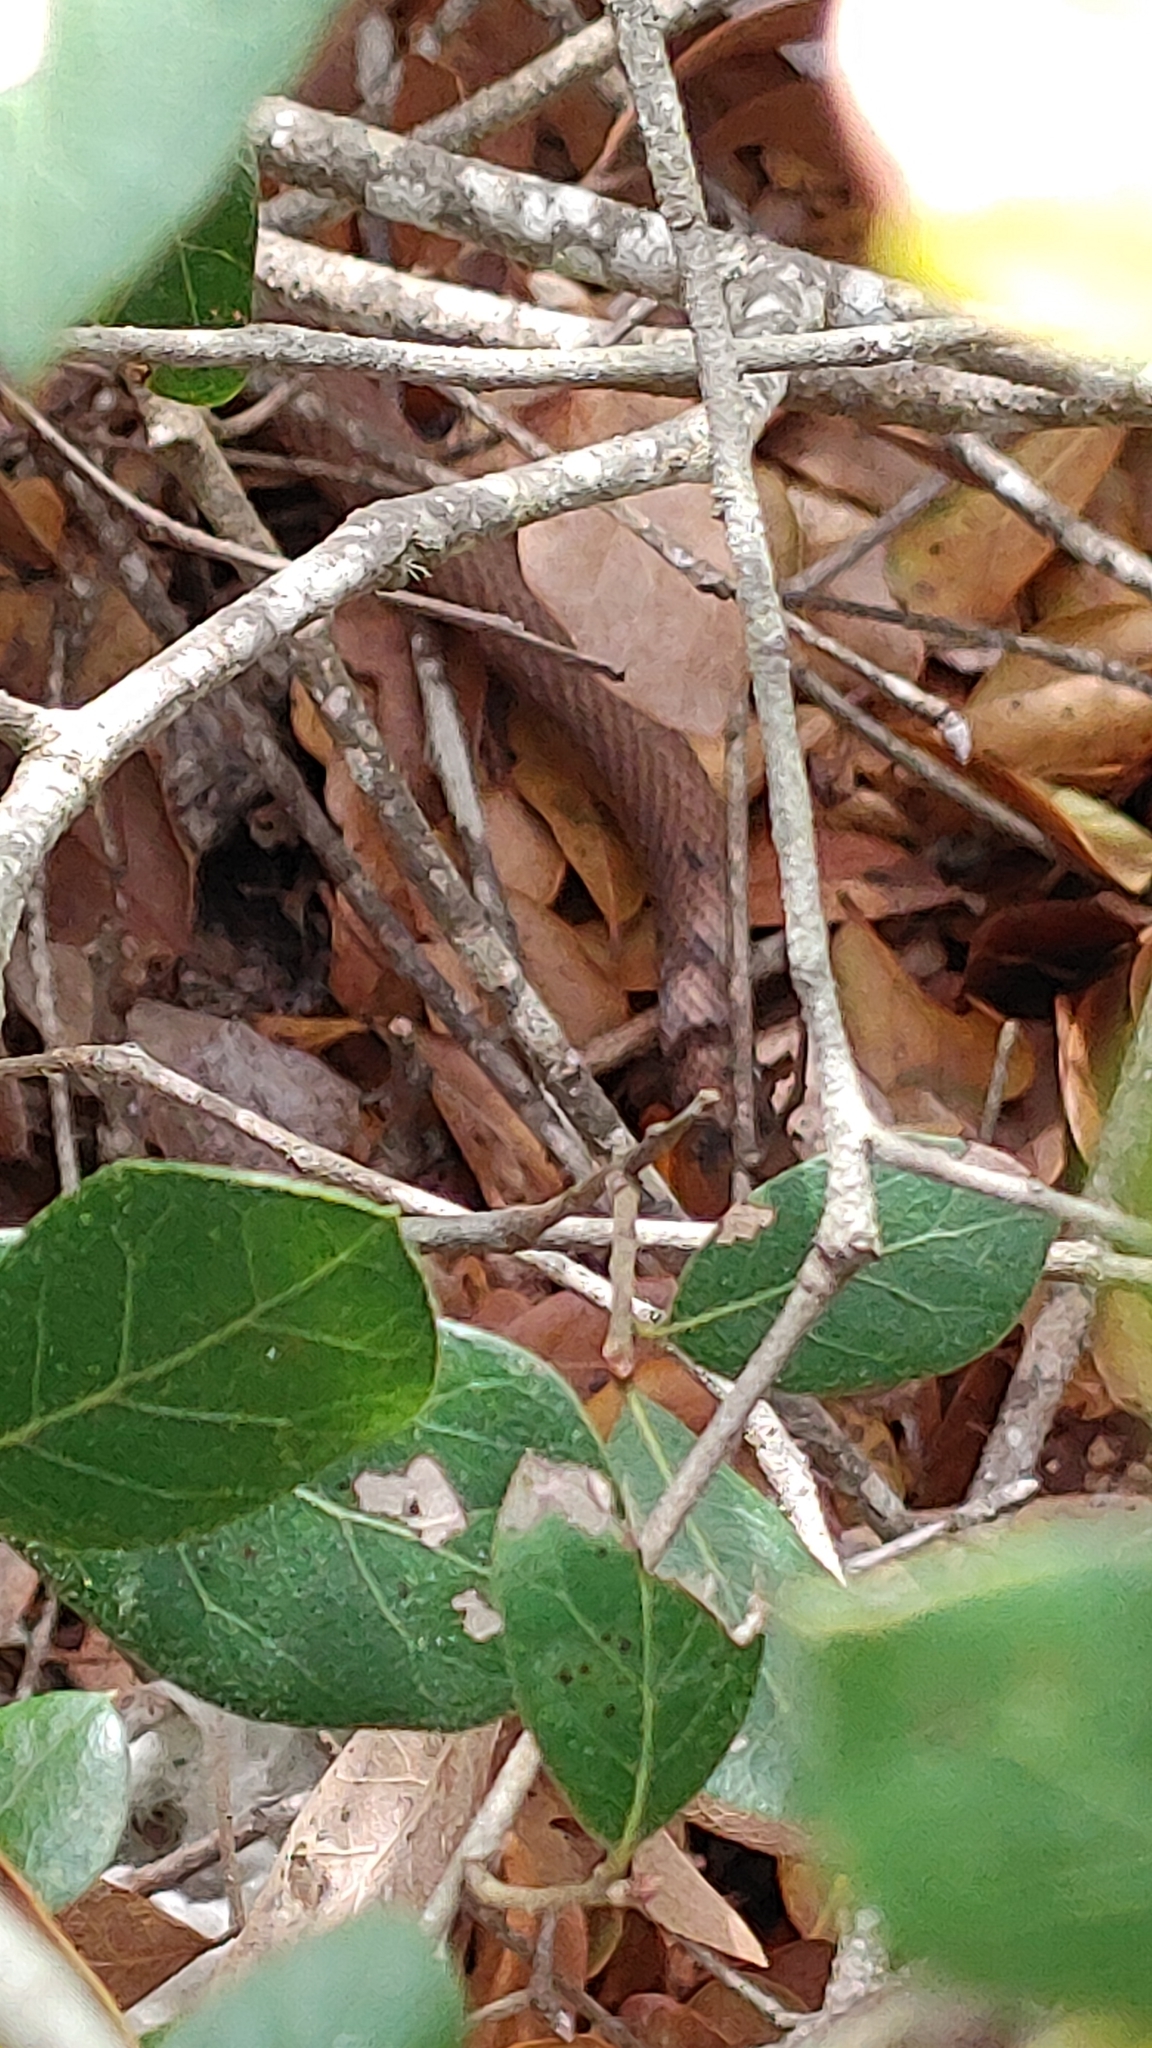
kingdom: Animalia
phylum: Chordata
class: Squamata
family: Colubridae
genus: Masticophis
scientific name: Masticophis flagellum
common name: Coachwhip
